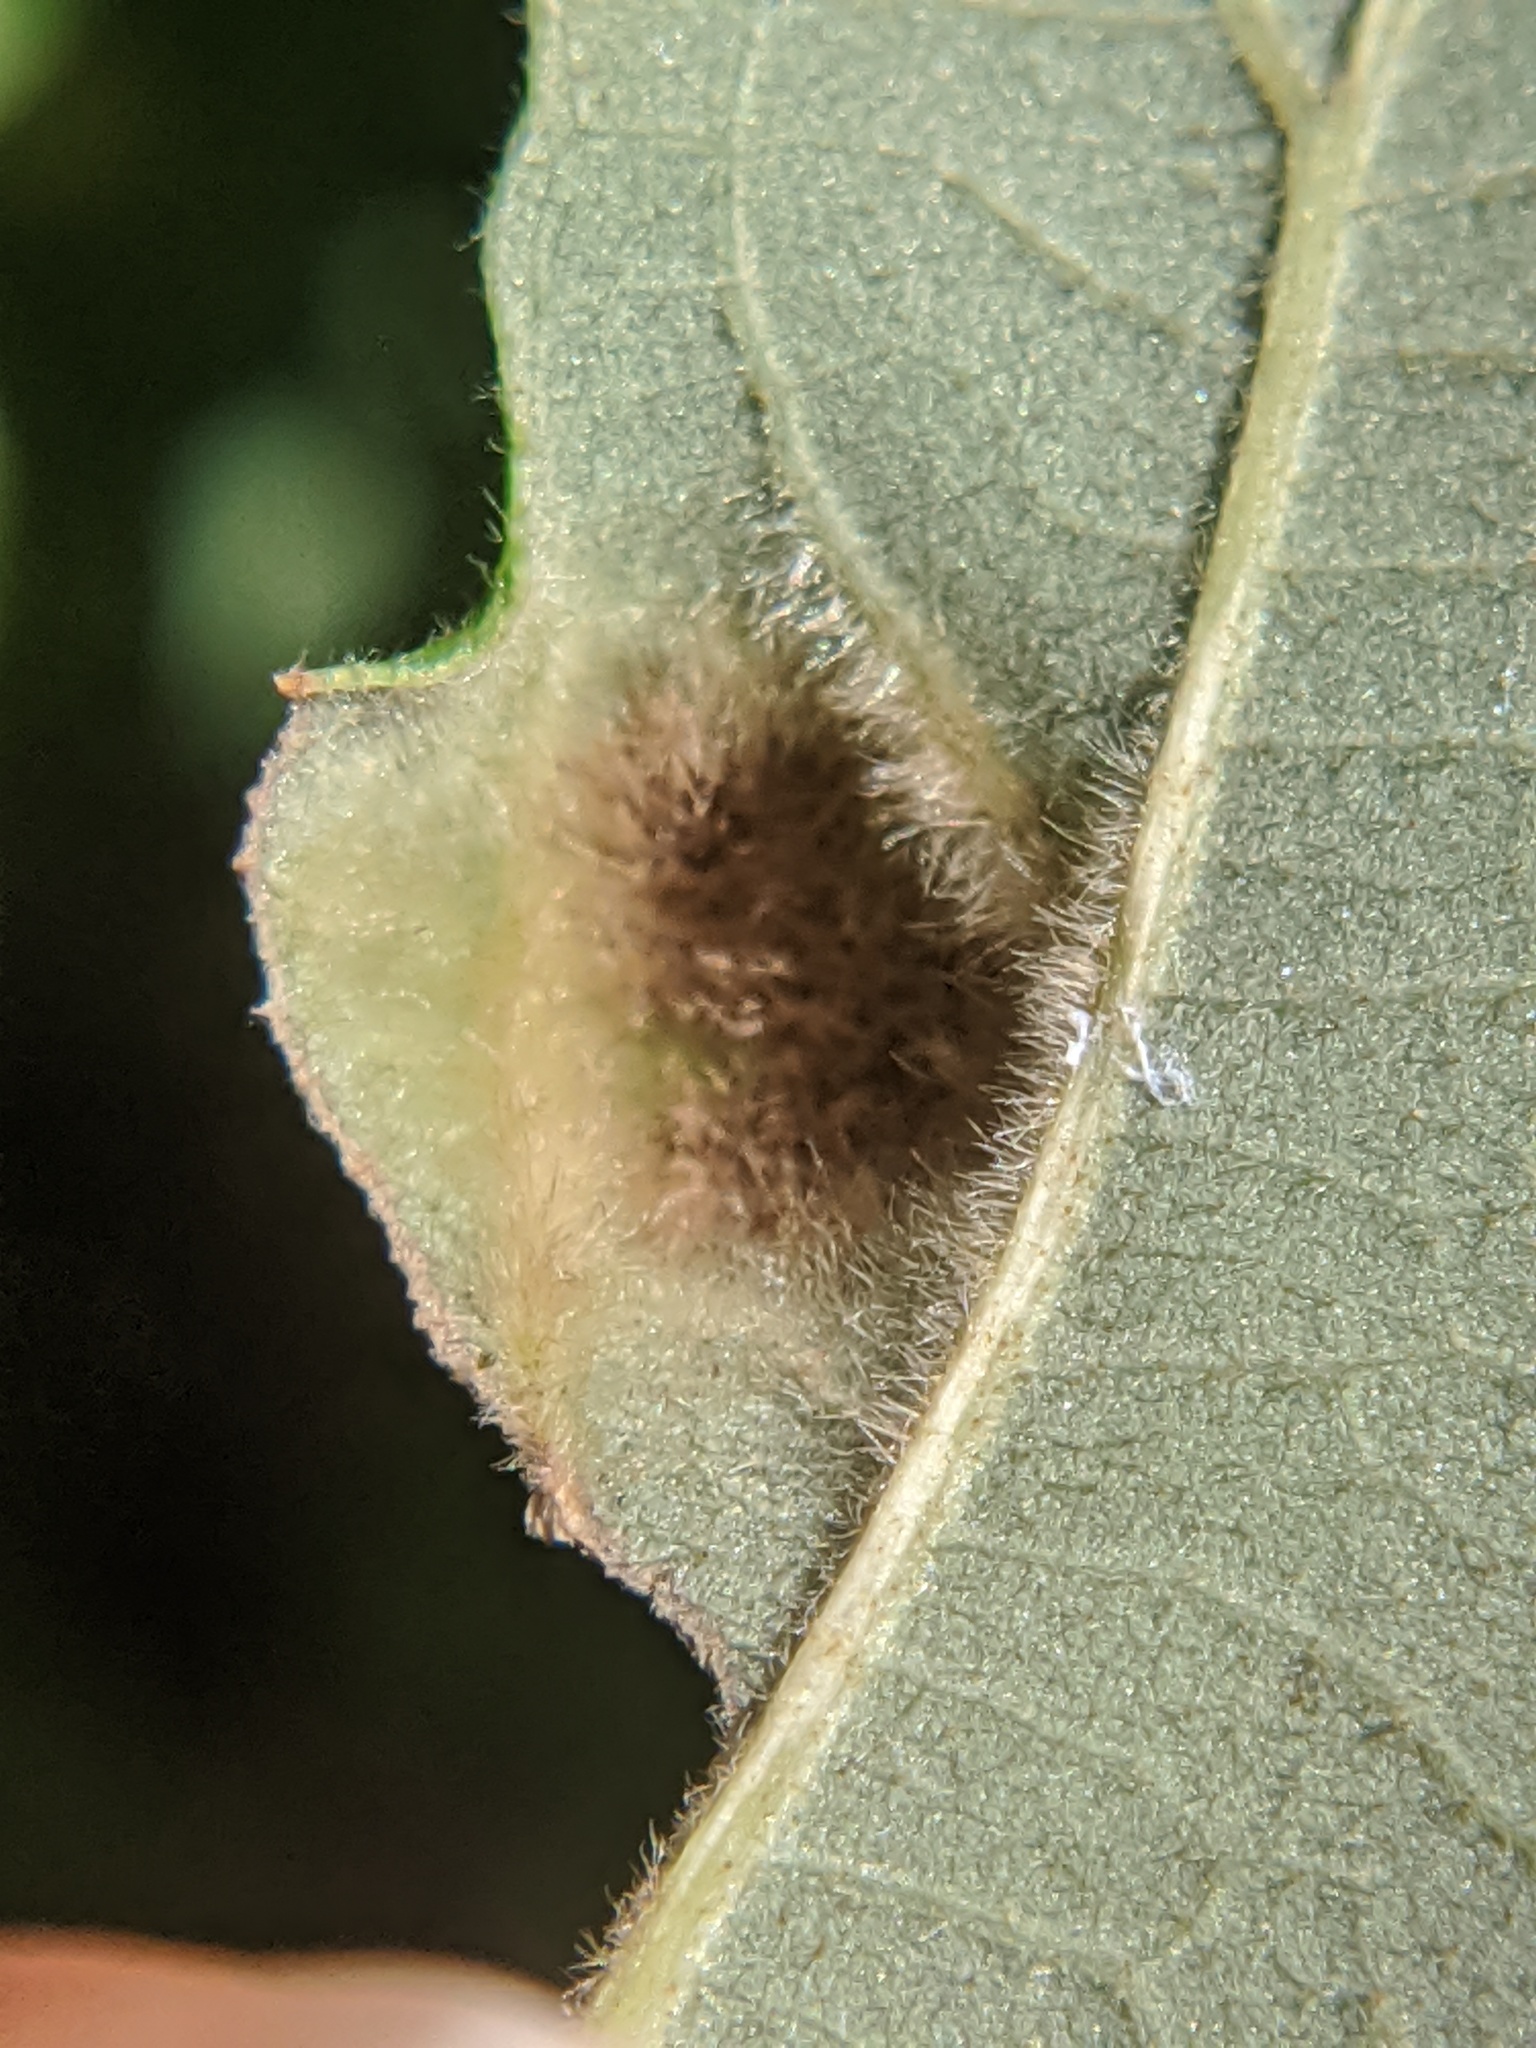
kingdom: Animalia
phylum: Arthropoda
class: Arachnida
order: Trombidiformes
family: Eriophyidae
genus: Aceria
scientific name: Aceria quercina
